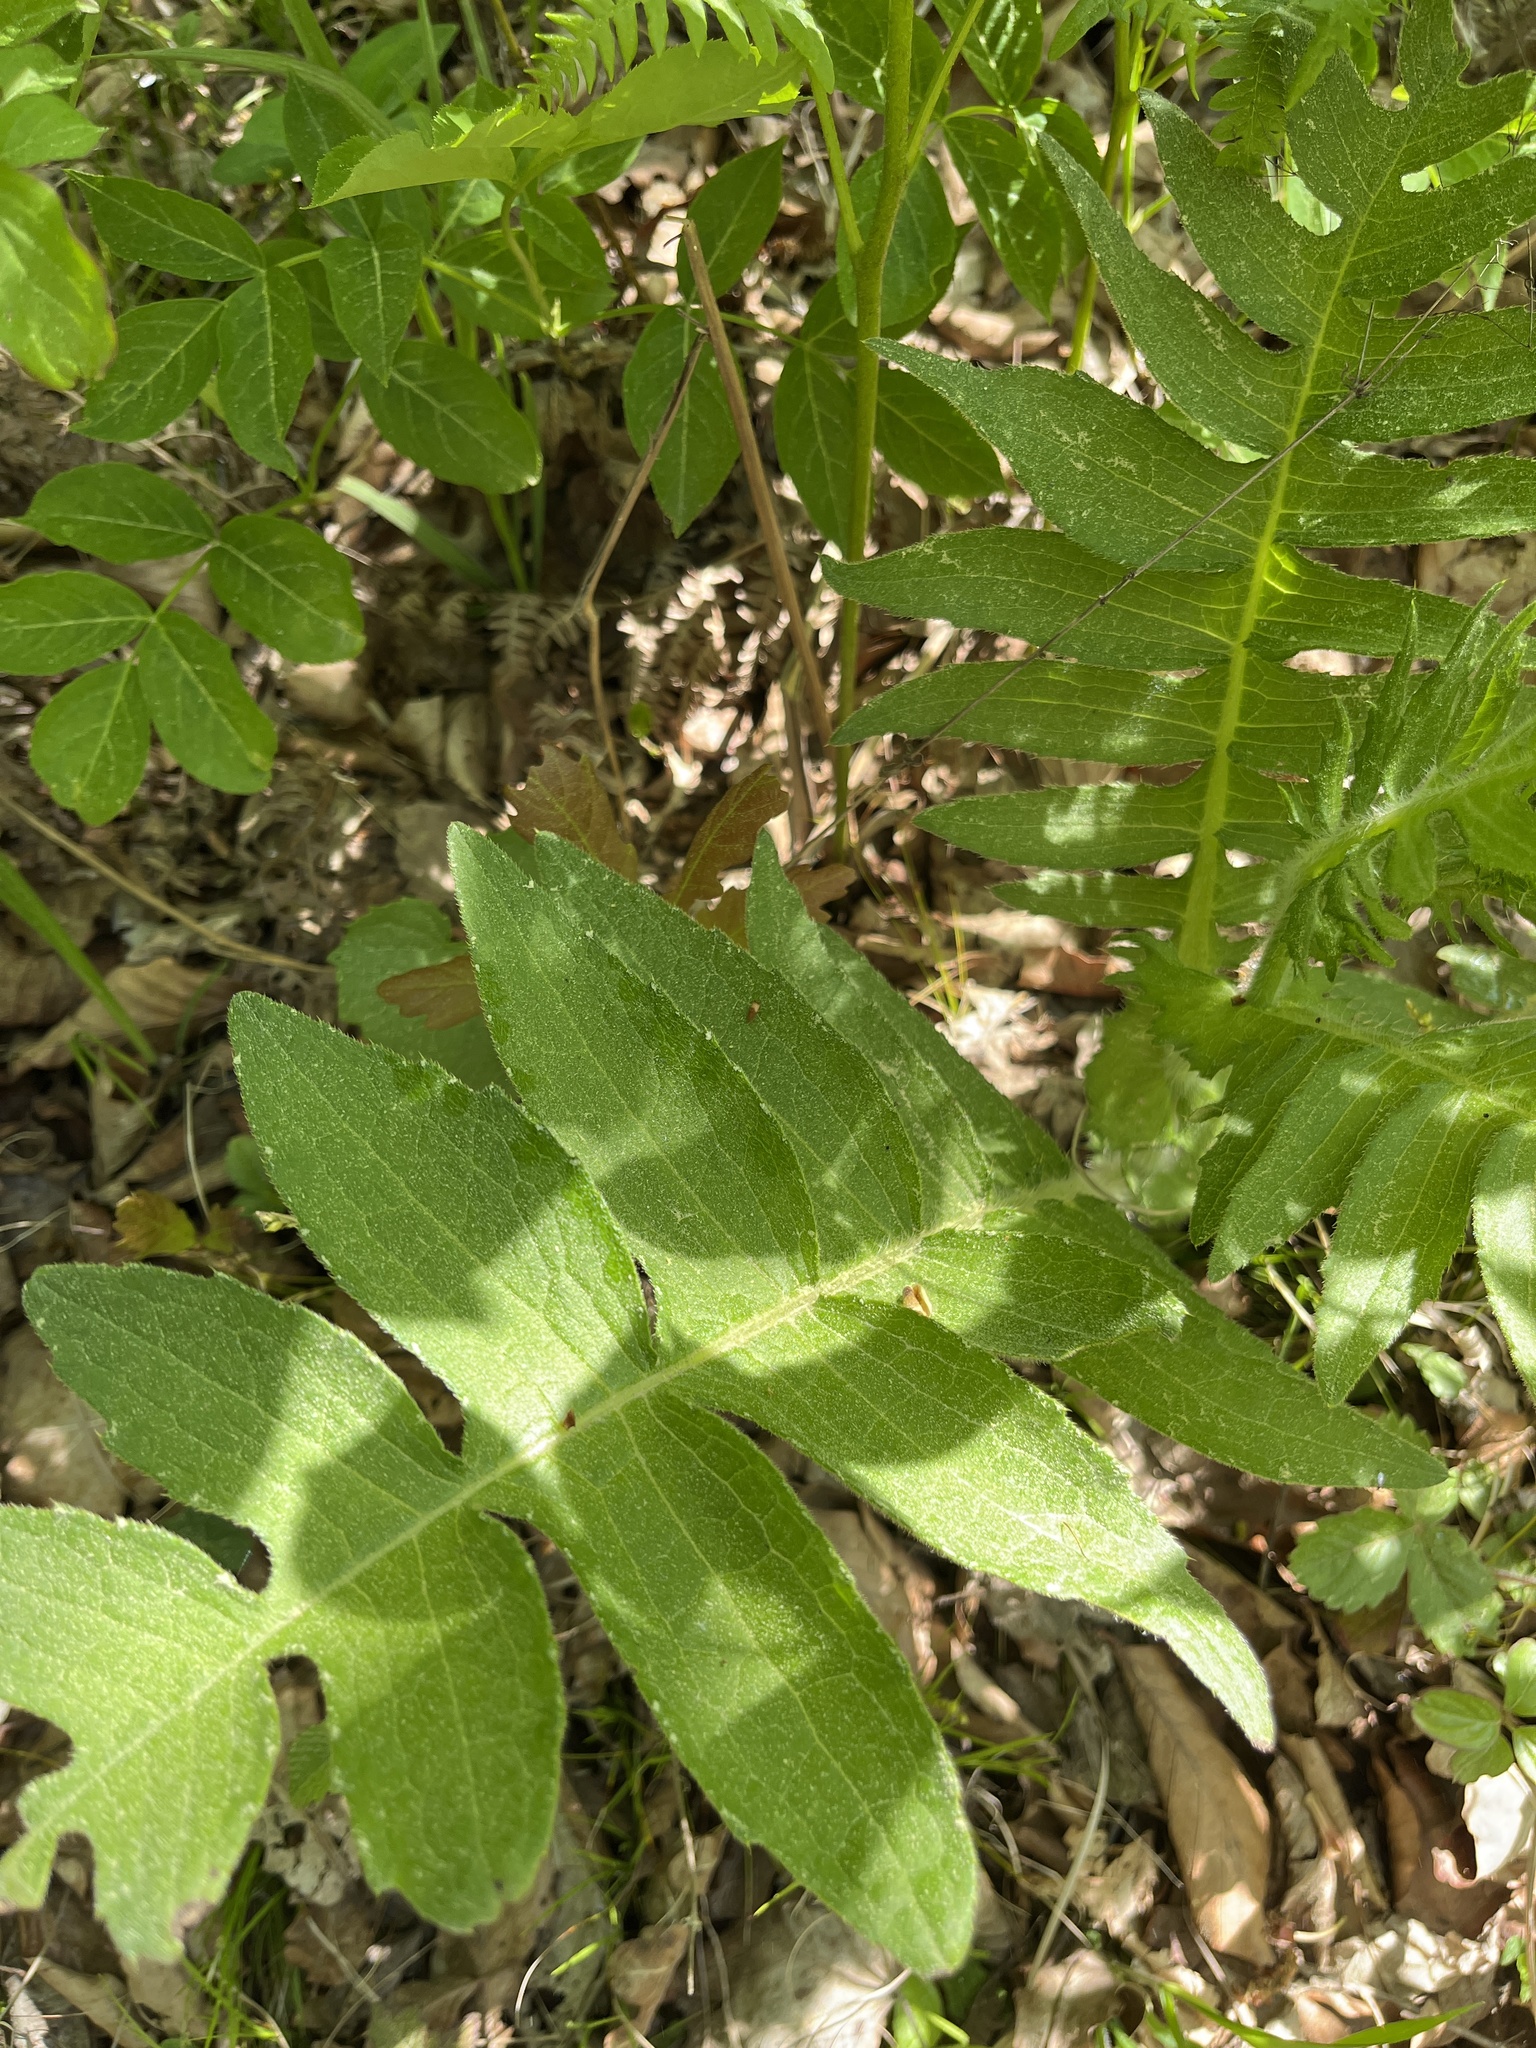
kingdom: Plantae
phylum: Tracheophyta
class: Magnoliopsida
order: Asterales
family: Asteraceae
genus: Cirsium
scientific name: Cirsium erisithales
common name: Yellow thistle
